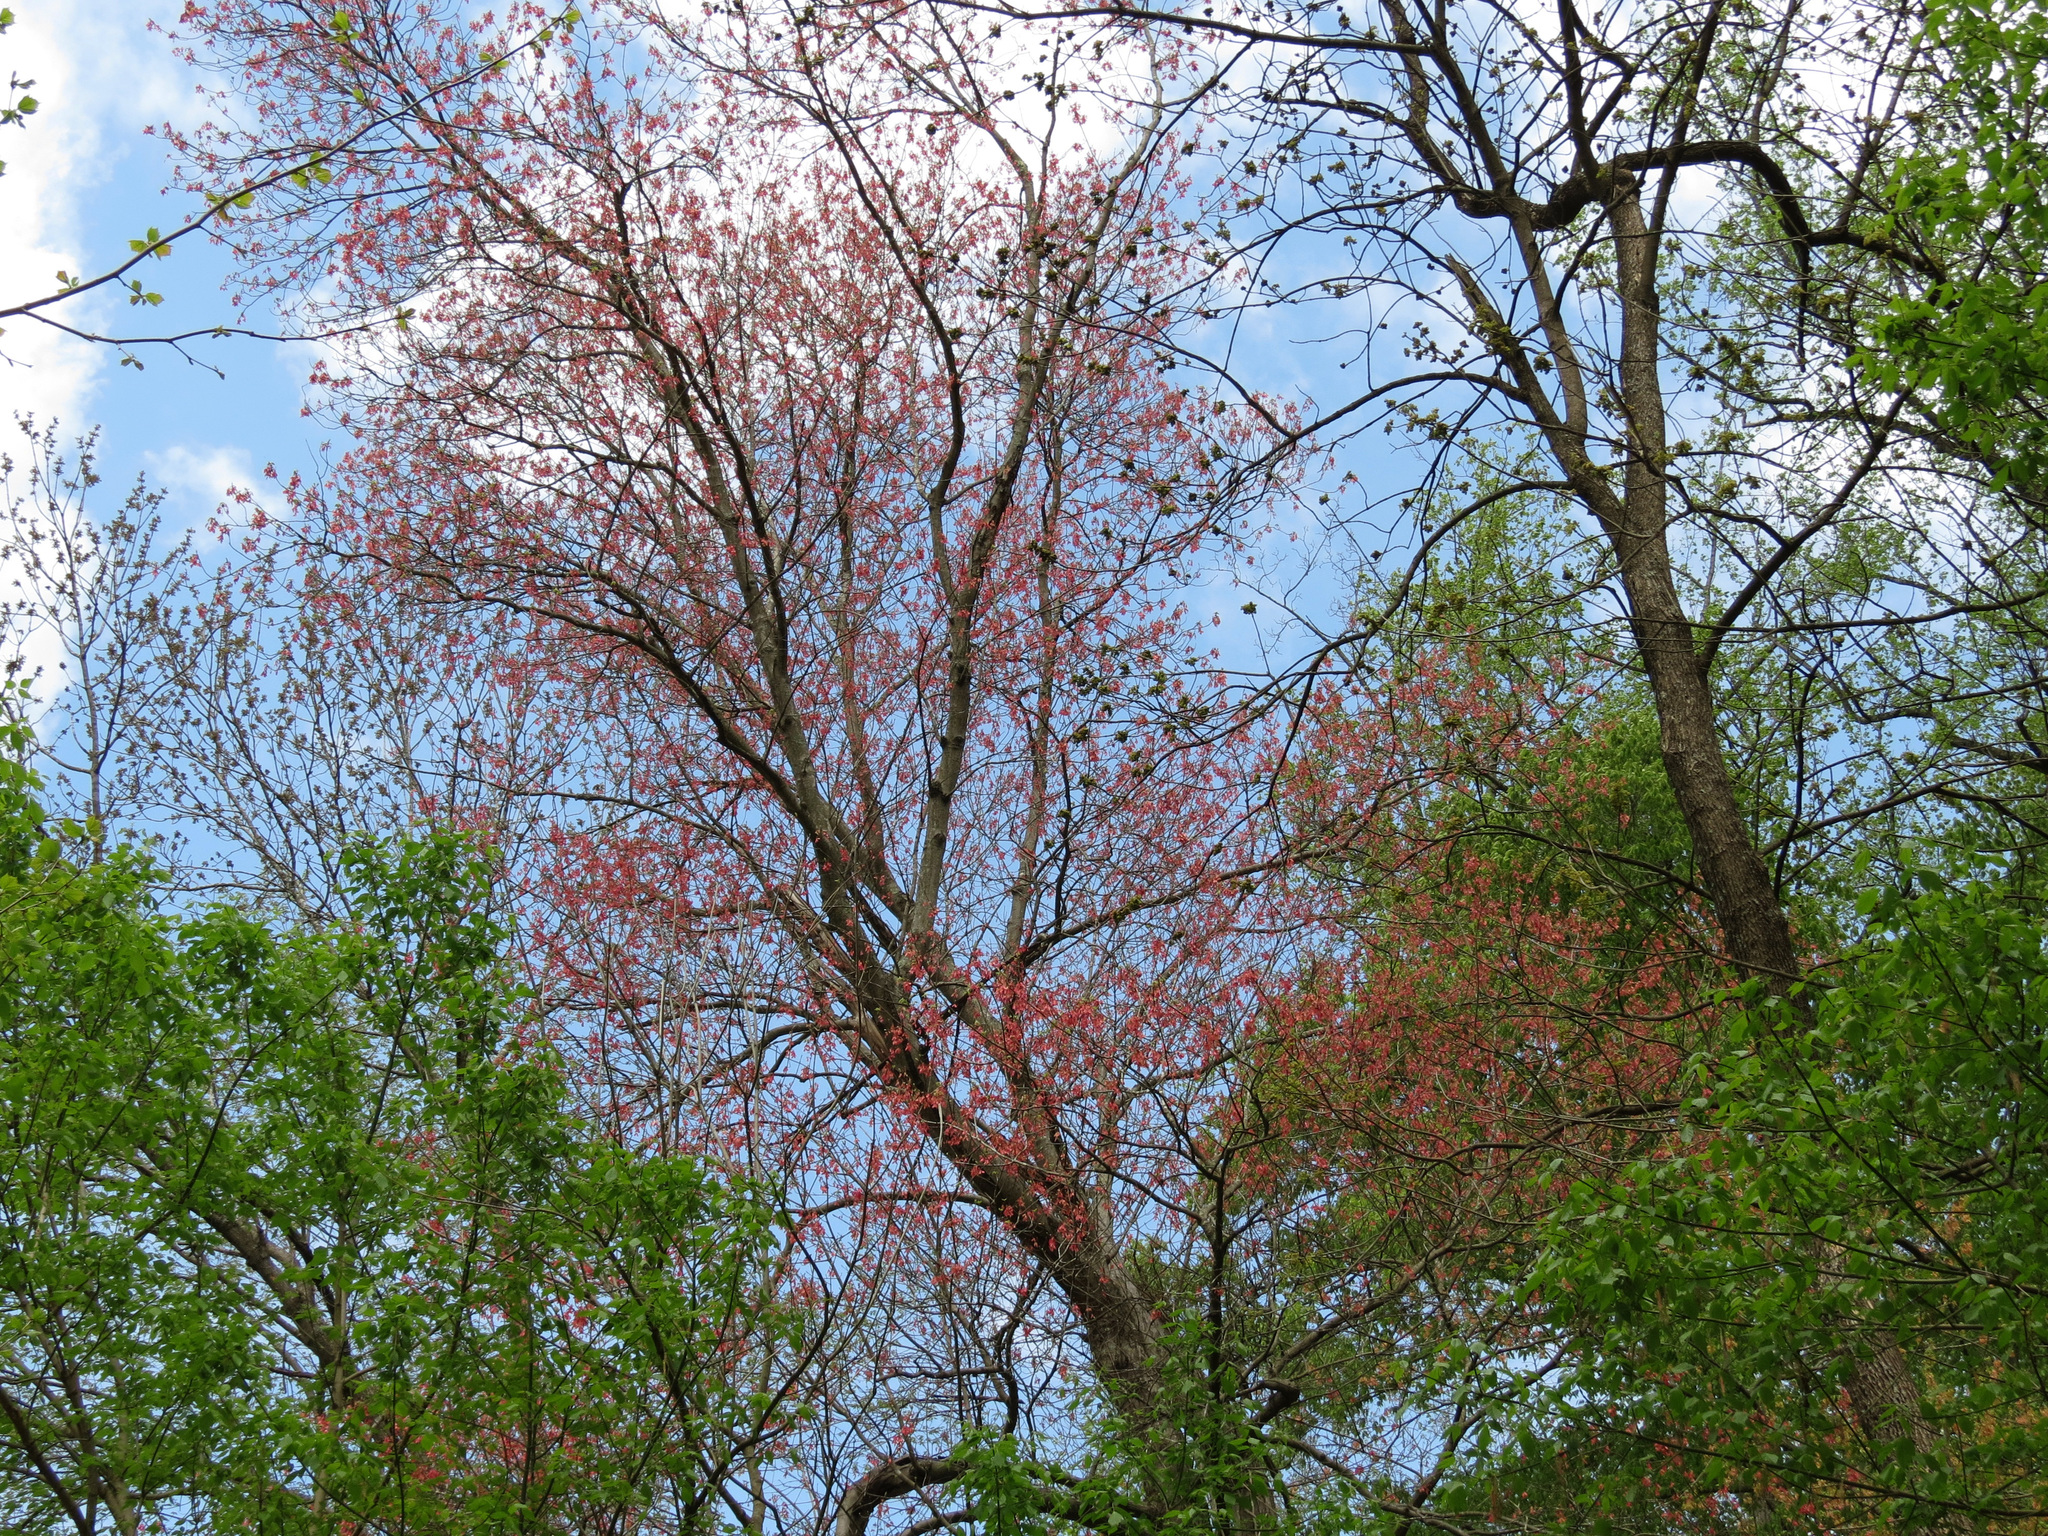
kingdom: Plantae
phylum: Tracheophyta
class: Magnoliopsida
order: Sapindales
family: Sapindaceae
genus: Acer
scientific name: Acer rubrum
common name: Red maple
